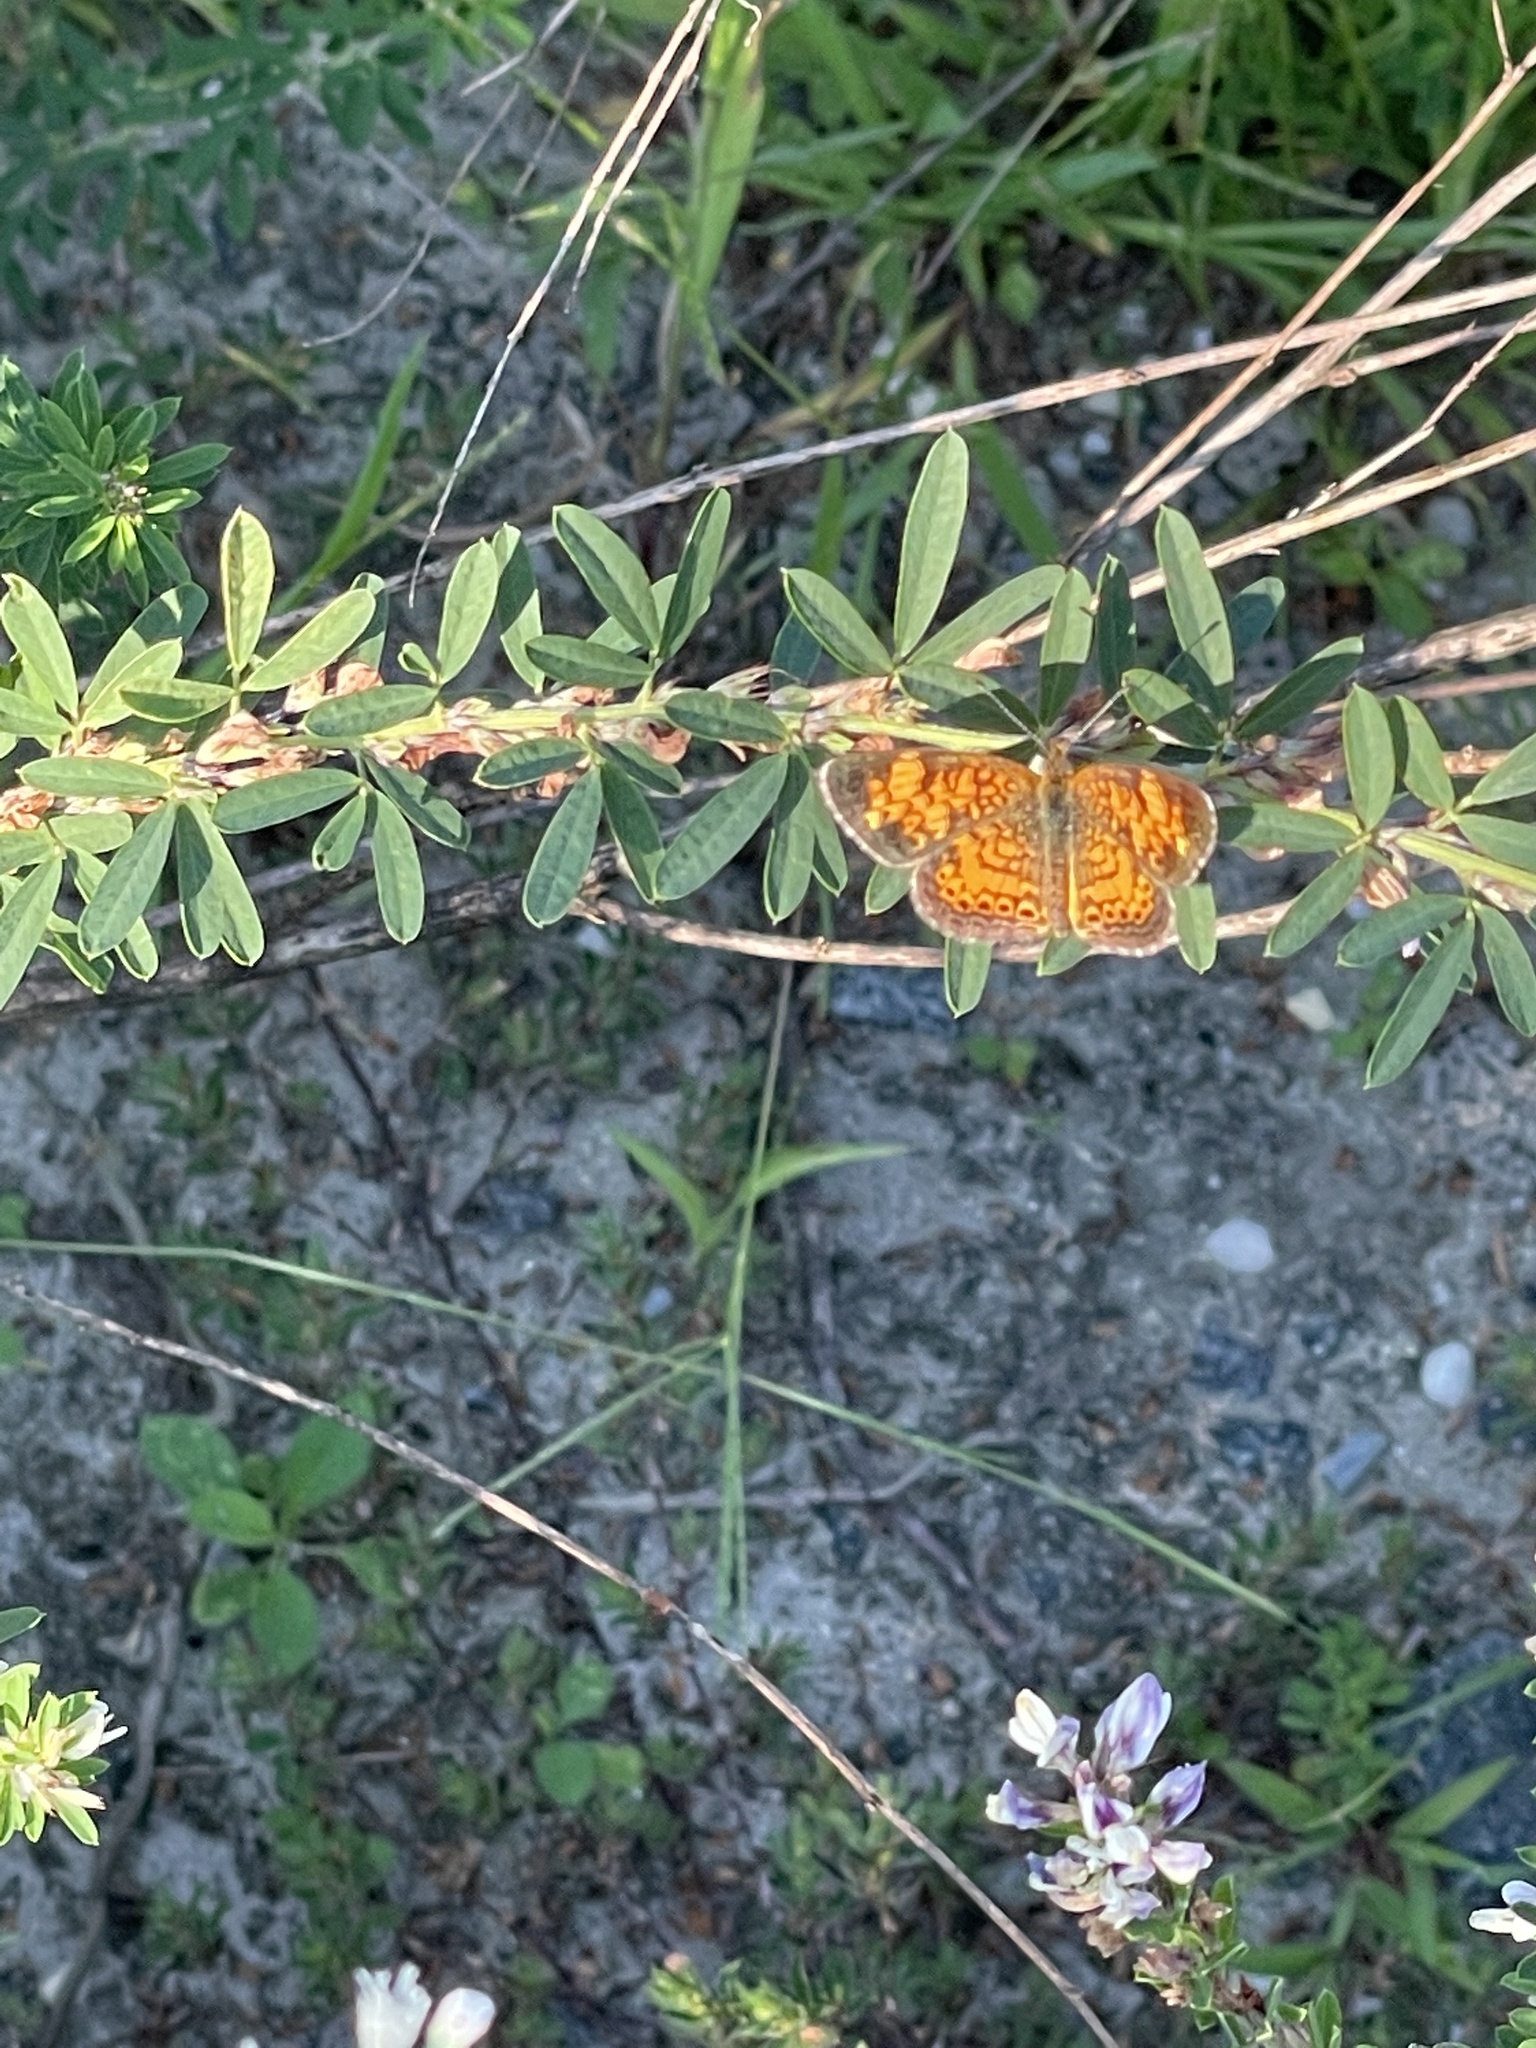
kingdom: Animalia
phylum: Arthropoda
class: Insecta
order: Lepidoptera
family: Nymphalidae
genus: Phyciodes
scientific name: Phyciodes tharos
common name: Pearl crescent
